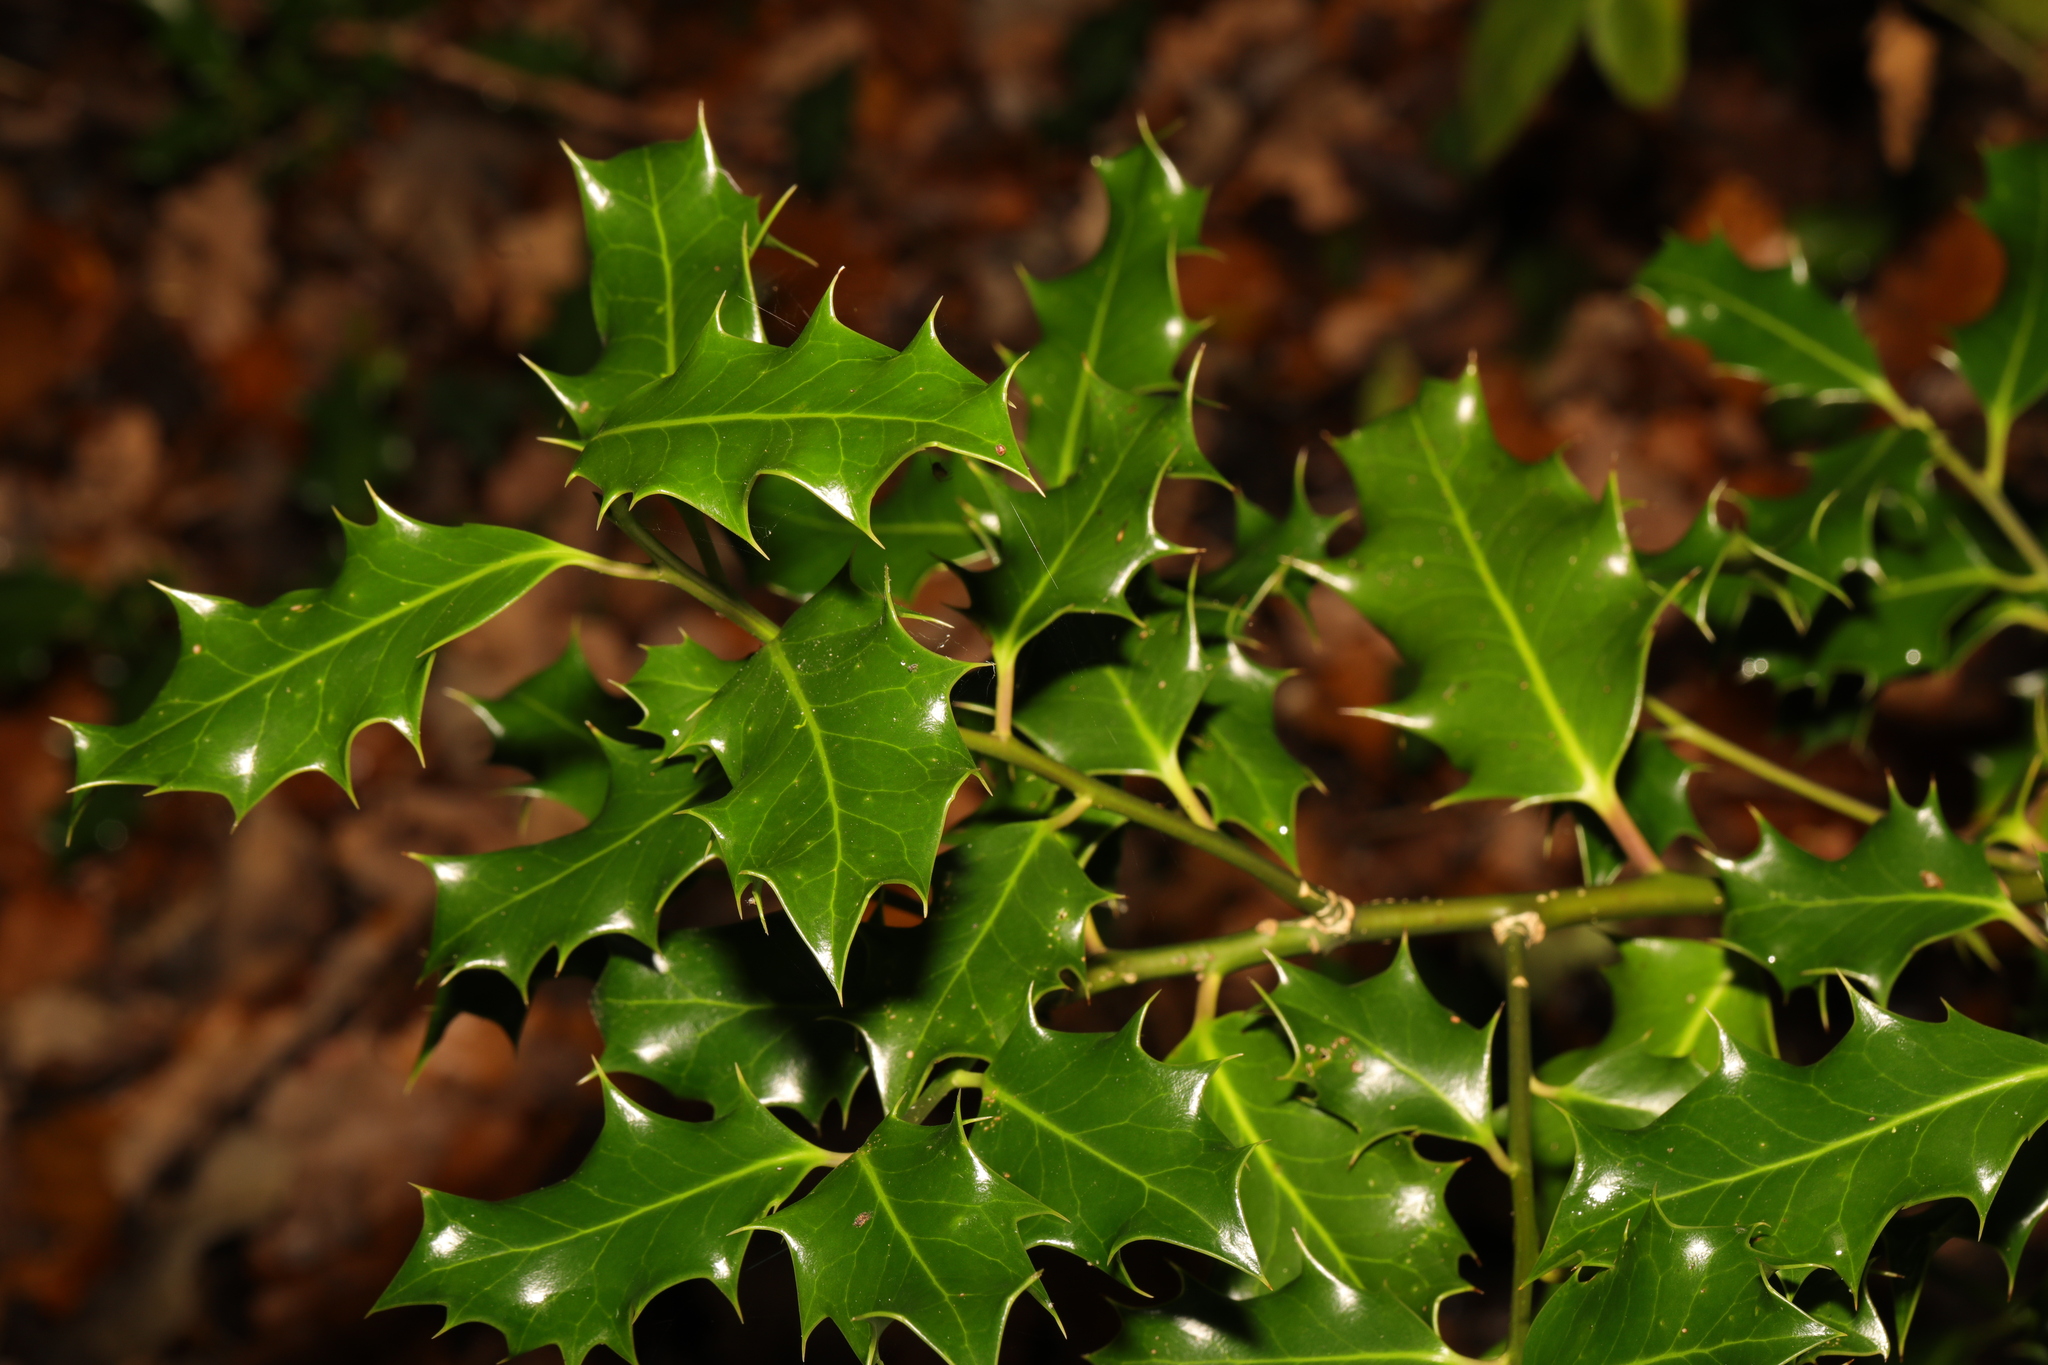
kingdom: Plantae
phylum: Tracheophyta
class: Magnoliopsida
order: Aquifoliales
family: Aquifoliaceae
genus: Ilex
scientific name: Ilex aquifolium
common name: English holly
